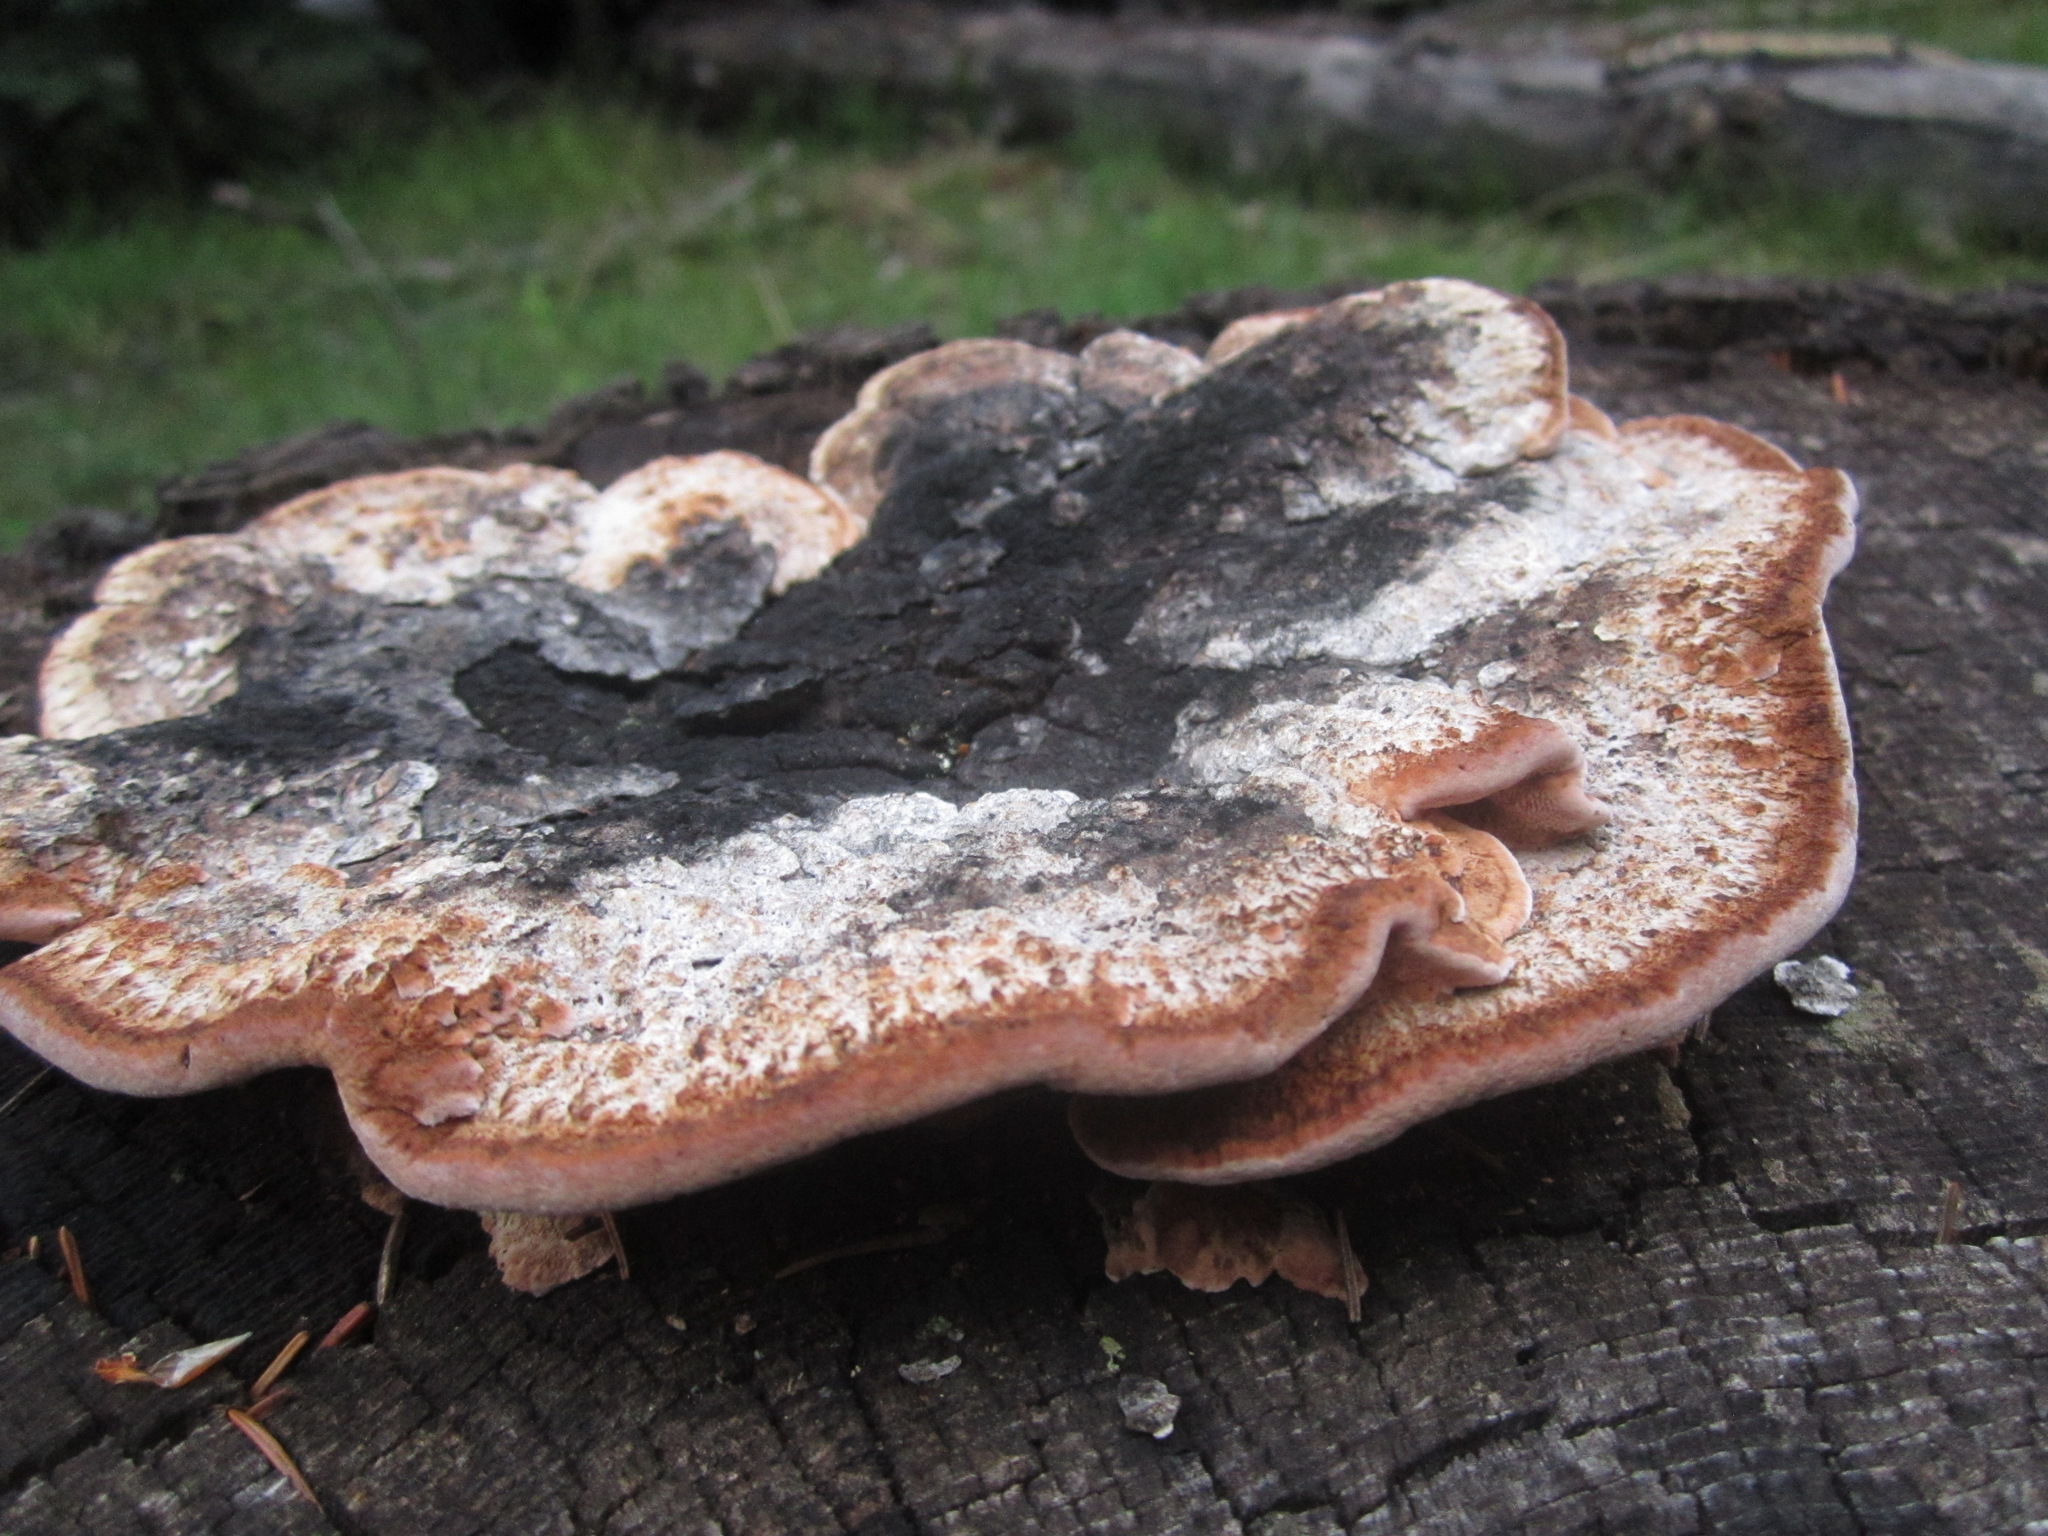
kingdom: Fungi
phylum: Basidiomycota
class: Agaricomycetes
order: Polyporales
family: Fomitopsidaceae
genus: Rhodofomes
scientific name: Rhodofomes cajanderi
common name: Rosy conk
